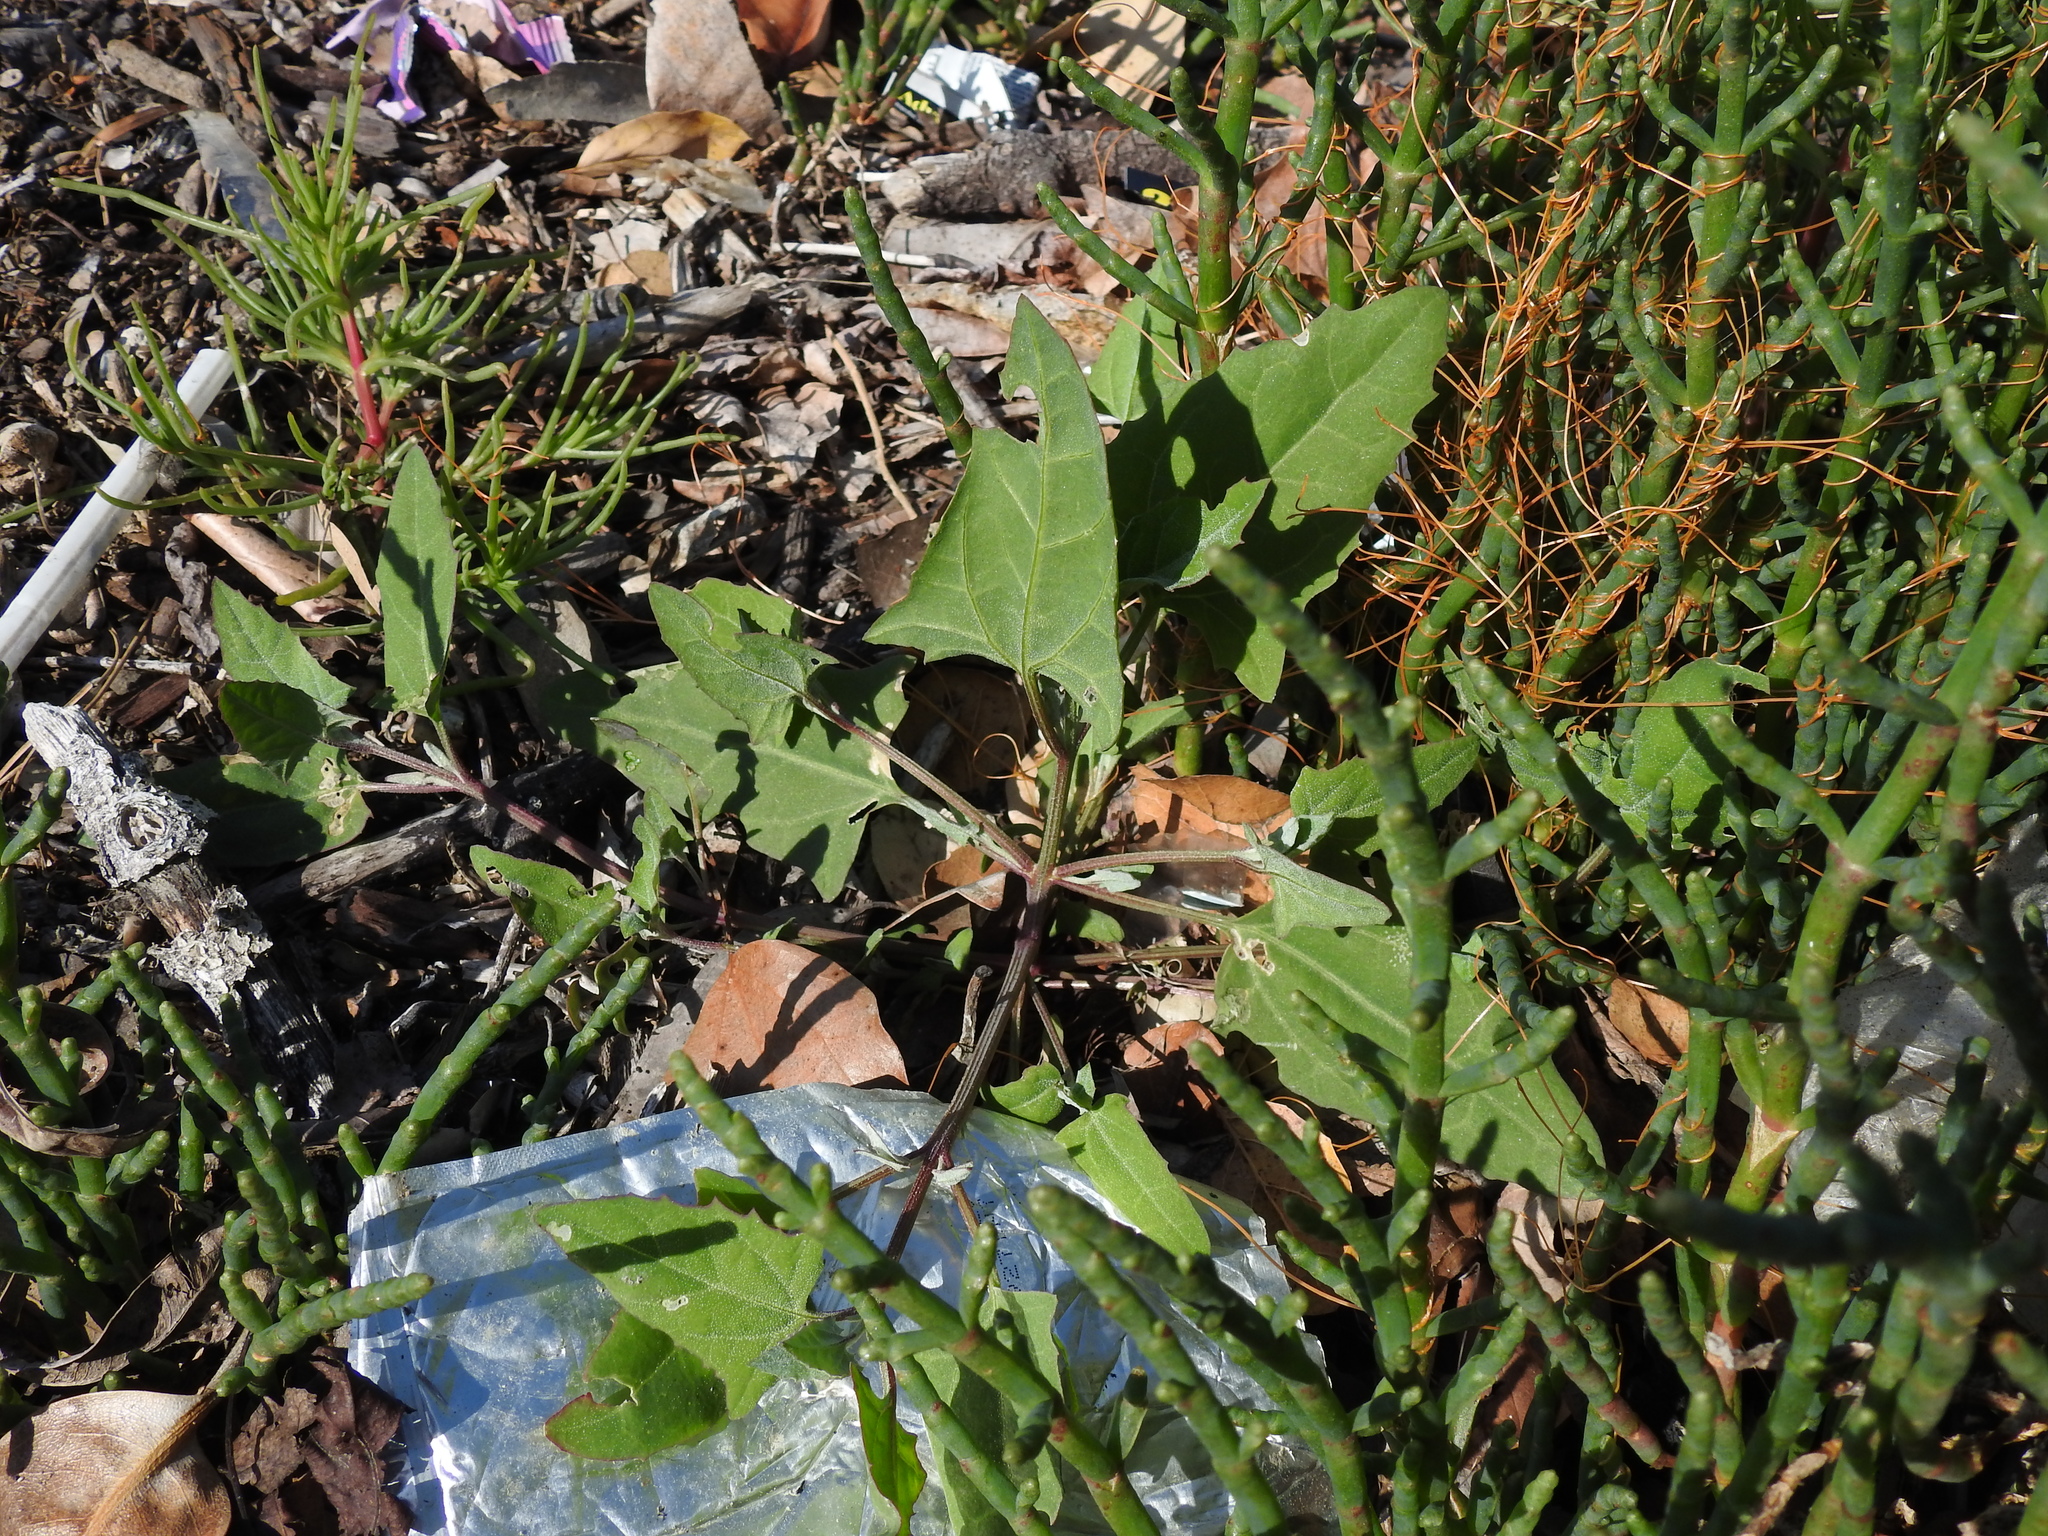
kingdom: Plantae
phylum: Tracheophyta
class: Magnoliopsida
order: Caryophyllales
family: Amaranthaceae
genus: Atriplex
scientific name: Atriplex prostrata
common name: Spear-leaved orache
